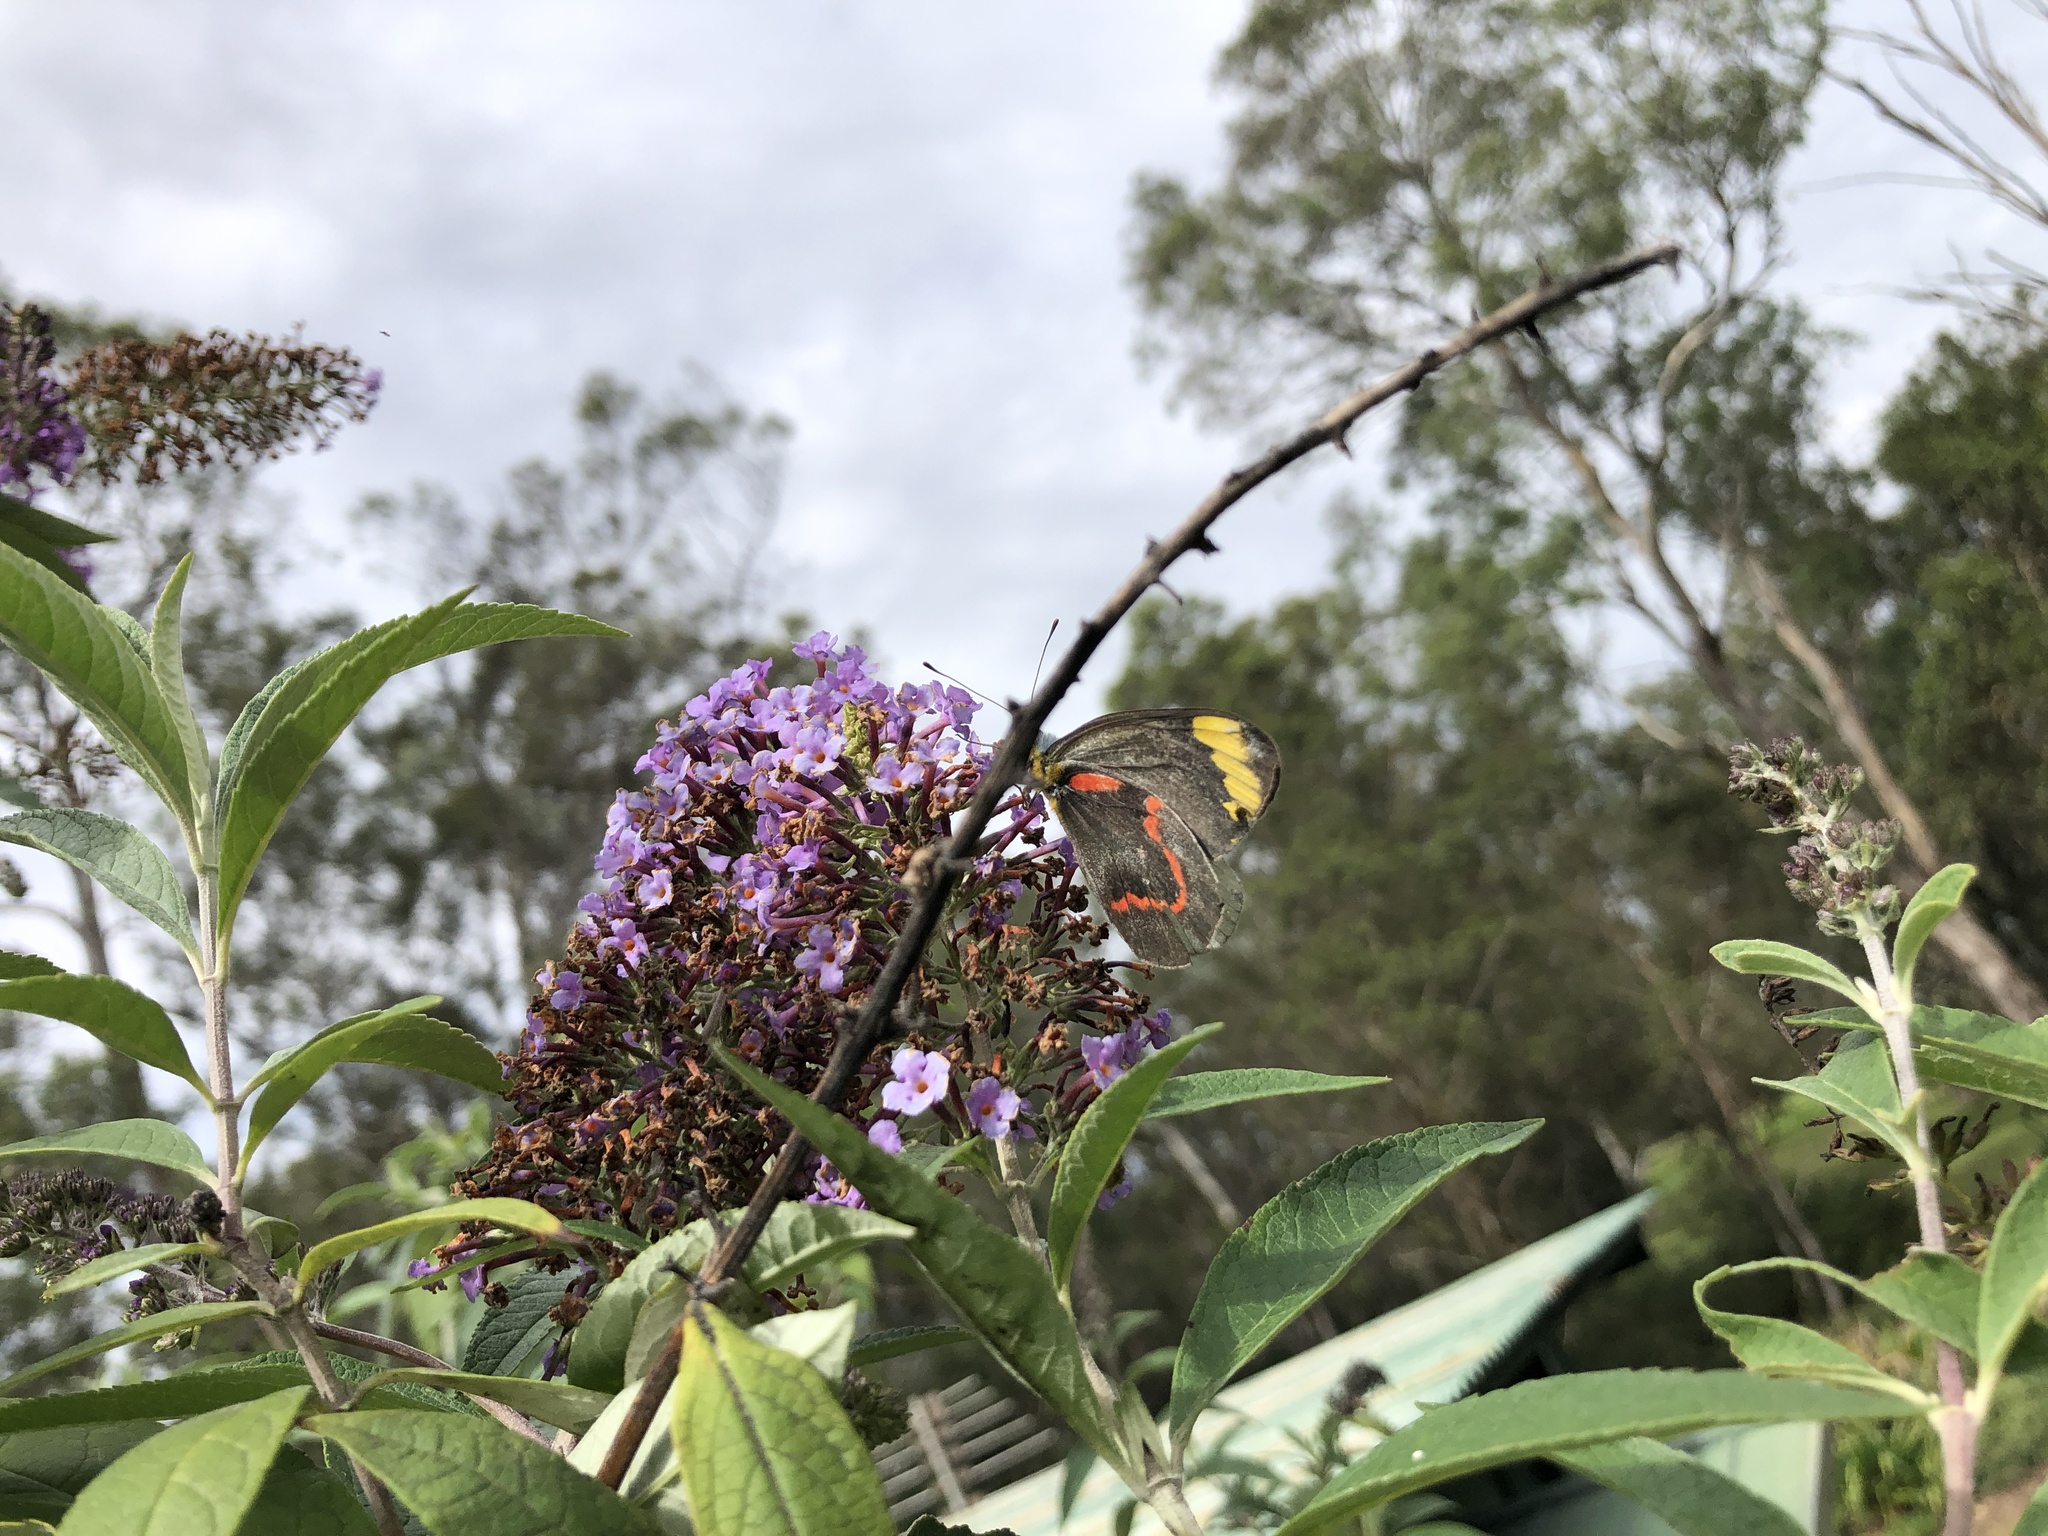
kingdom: Animalia
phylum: Arthropoda
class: Insecta
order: Lepidoptera
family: Pieridae
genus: Delias
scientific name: Delias nigrina
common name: Black jezebel
